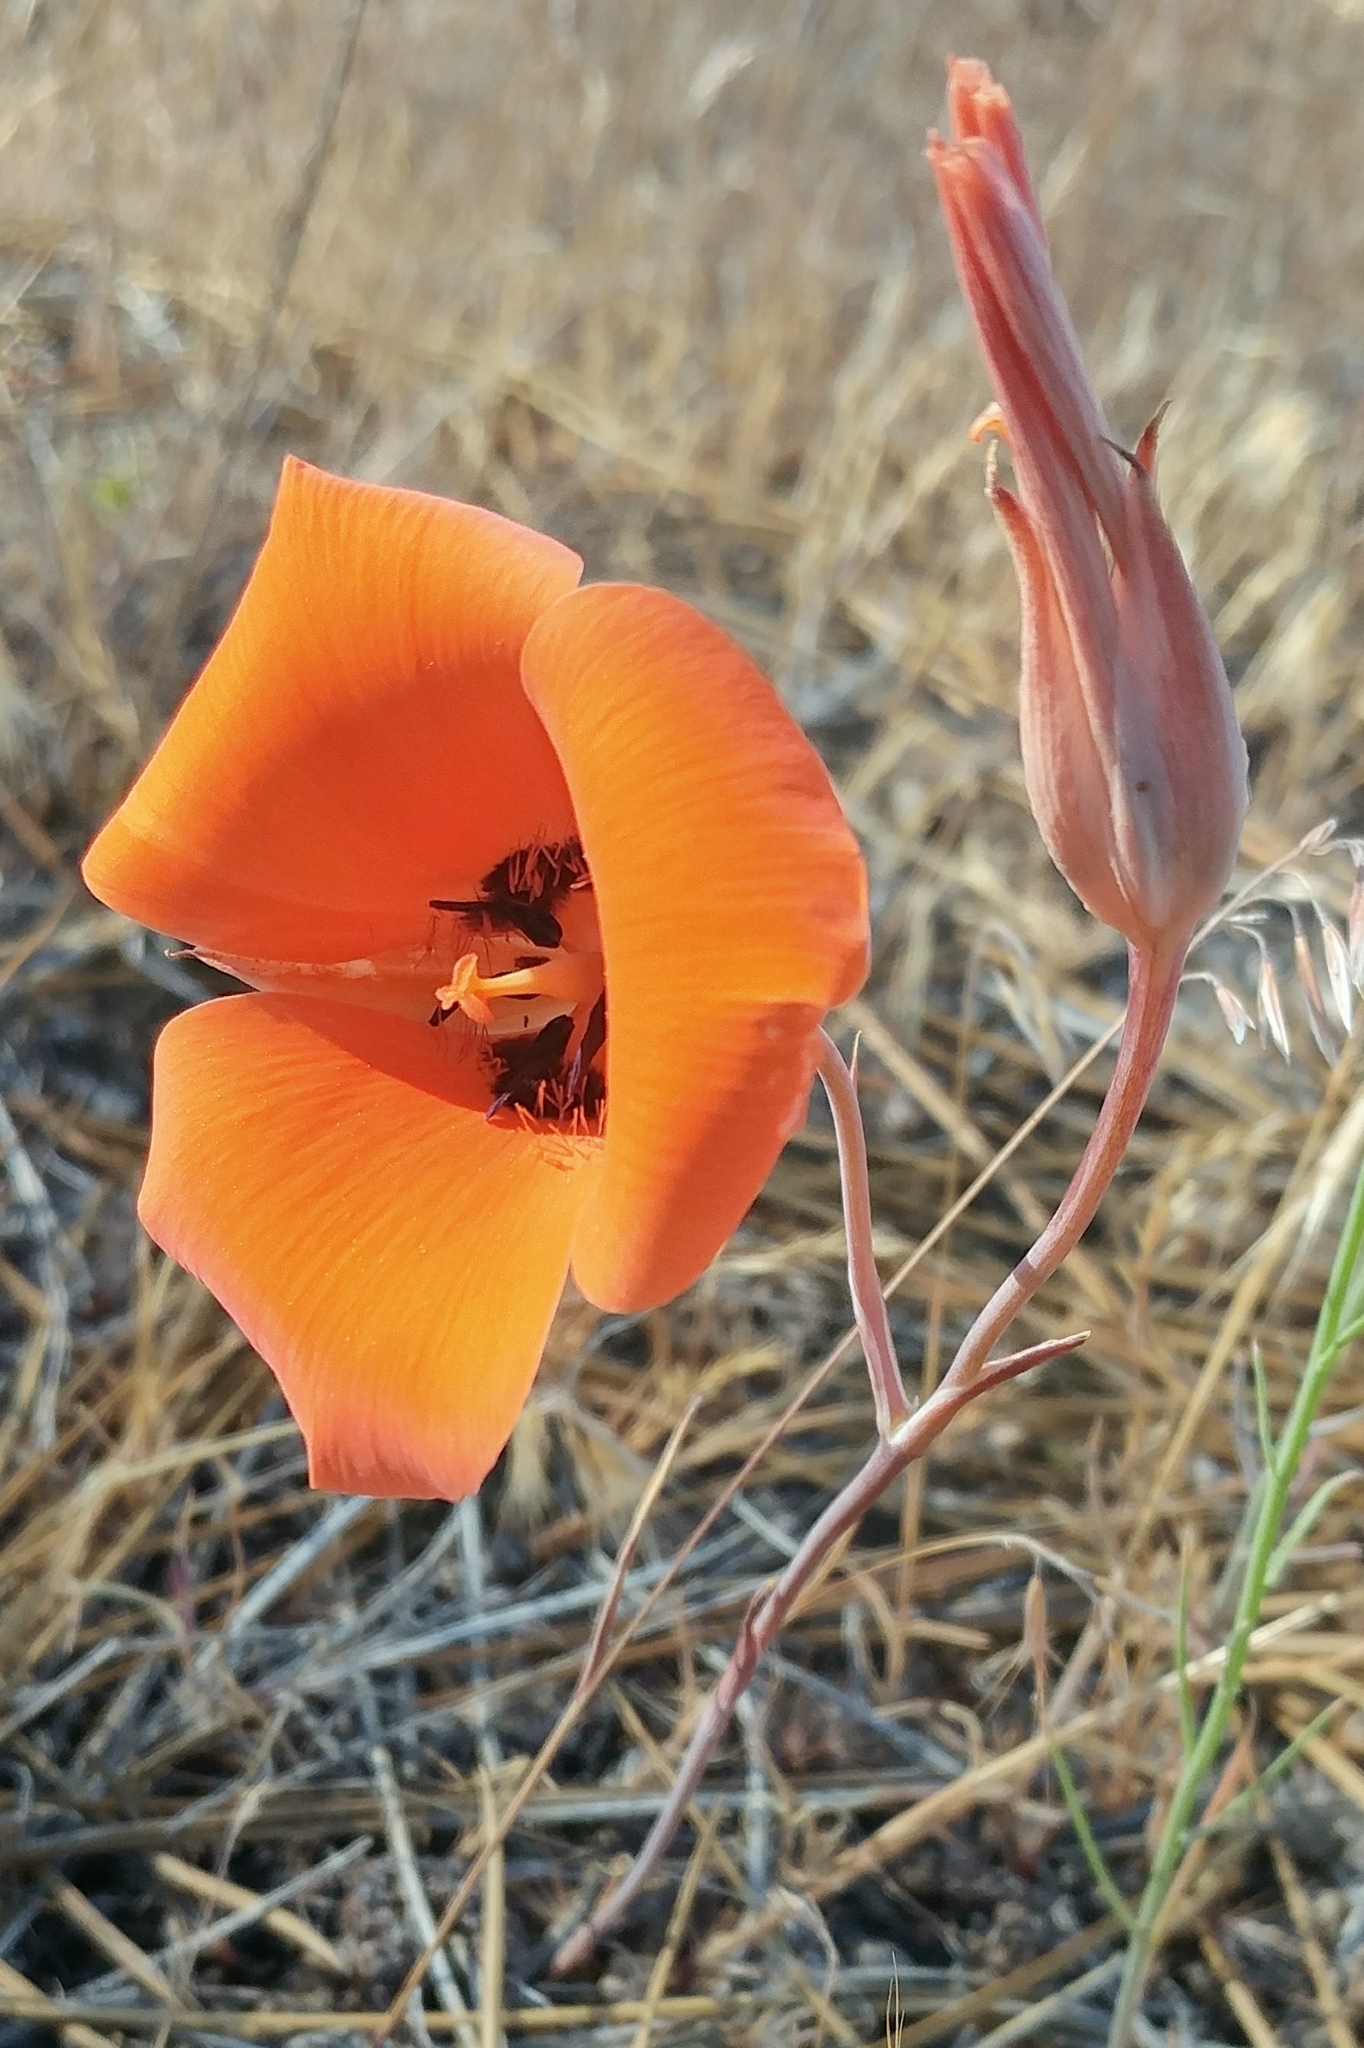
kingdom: Plantae
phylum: Tracheophyta
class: Liliopsida
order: Liliales
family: Liliaceae
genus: Calochortus
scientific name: Calochortus kennedyi
